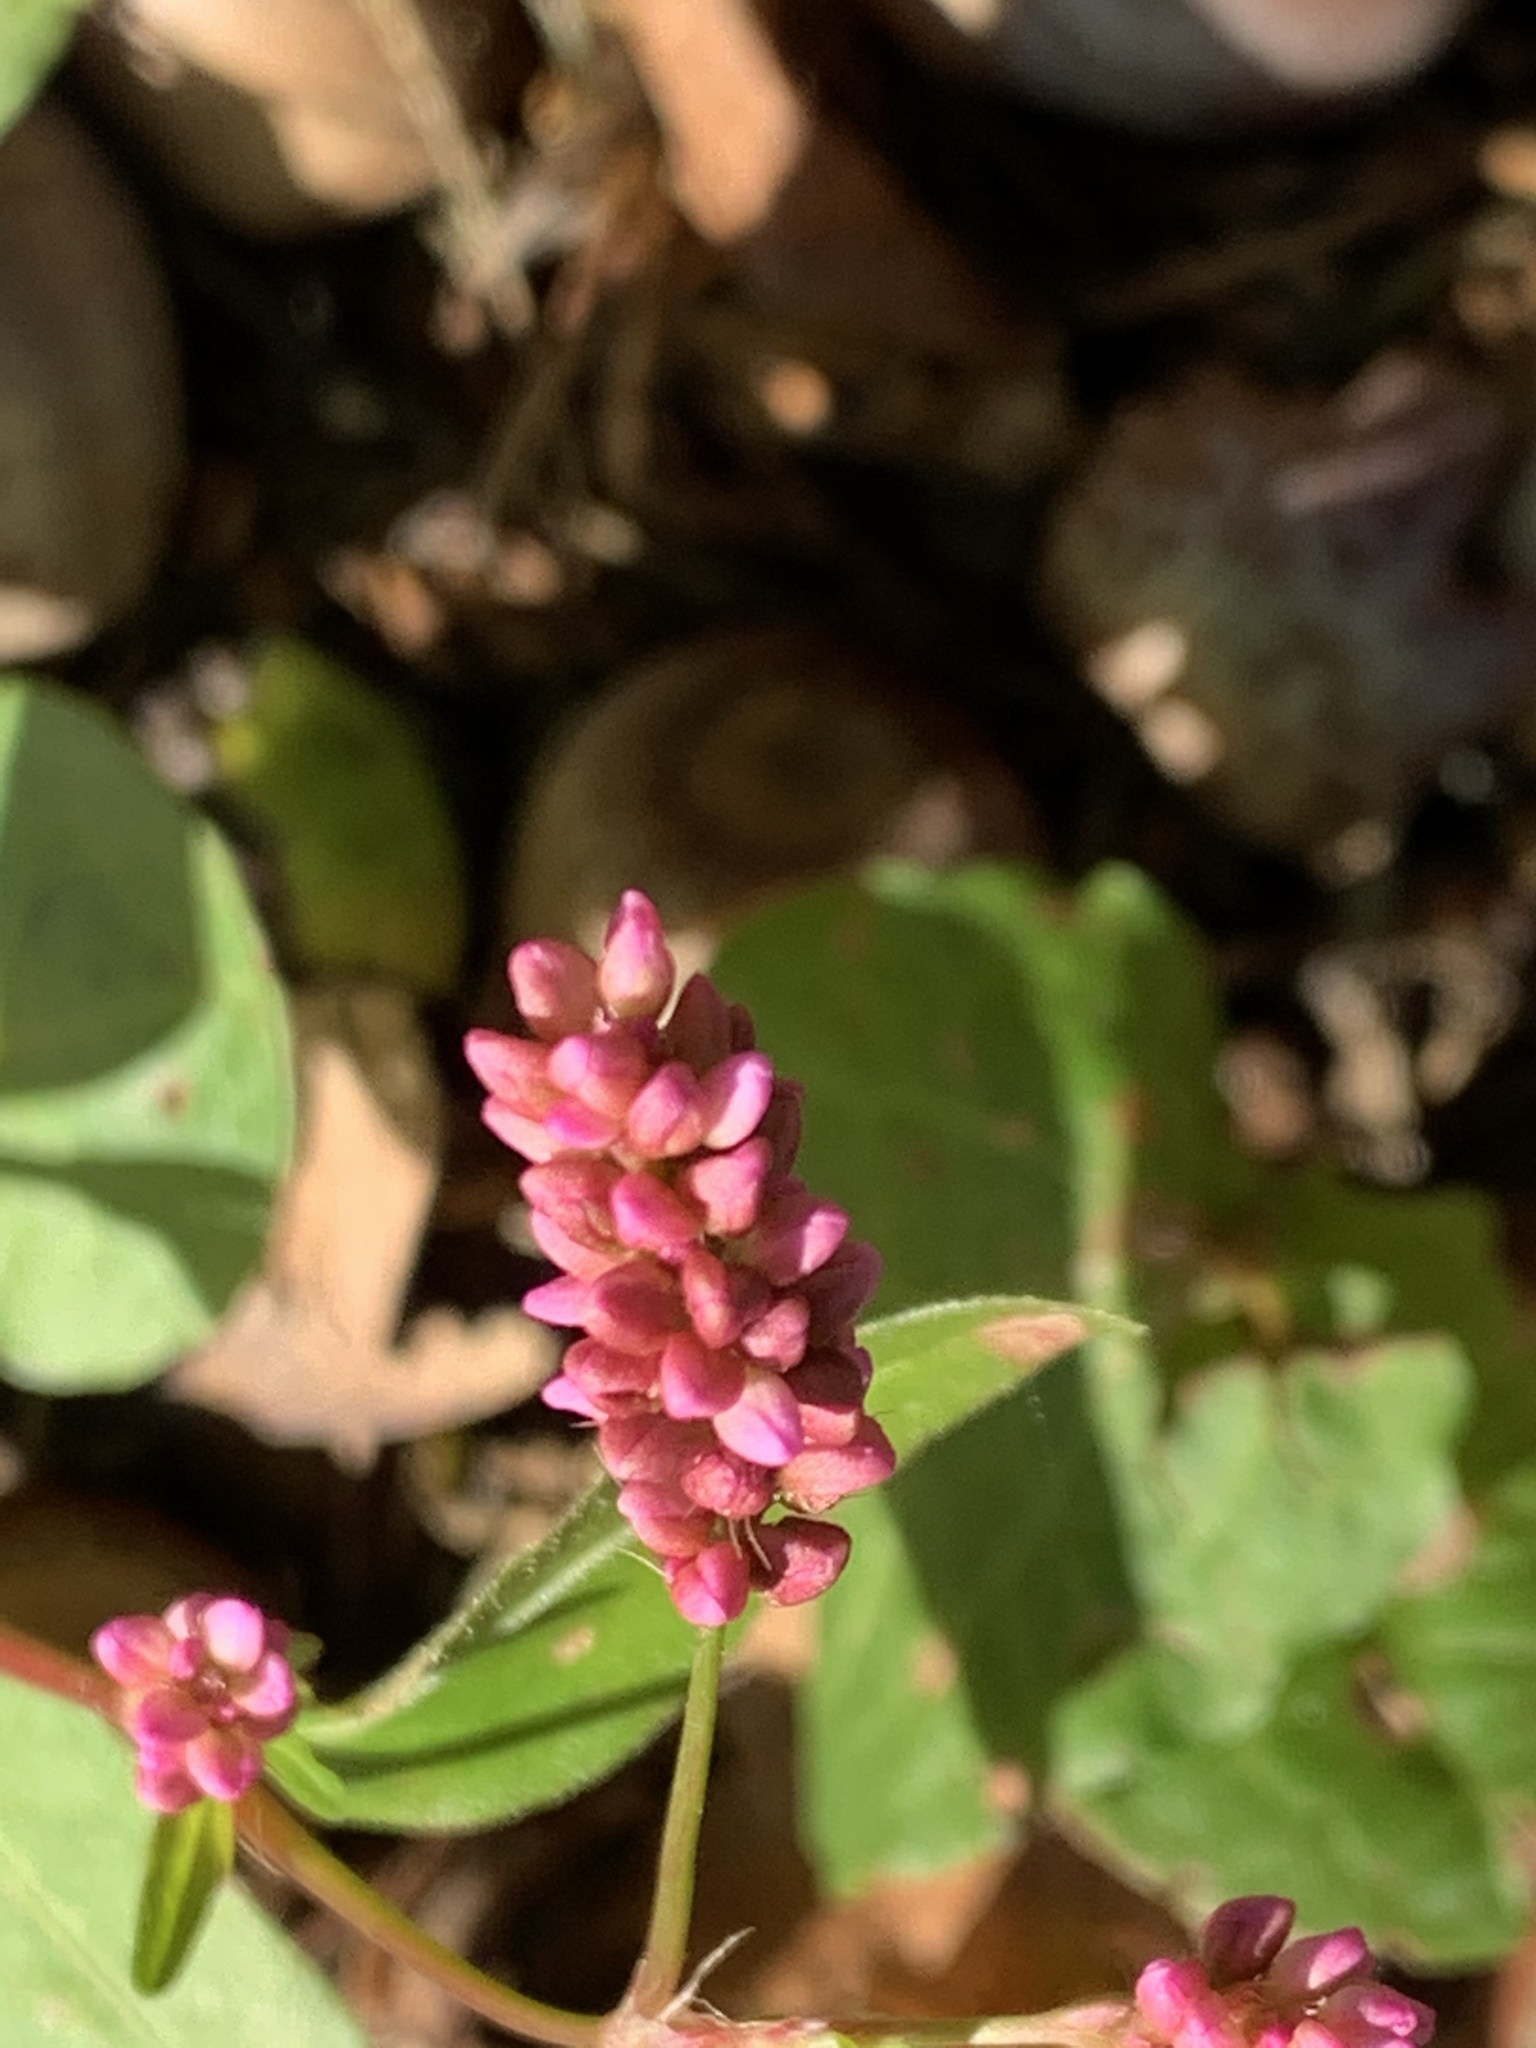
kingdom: Plantae
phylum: Tracheophyta
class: Magnoliopsida
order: Caryophyllales
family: Polygonaceae
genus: Persicaria
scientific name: Persicaria longiseta
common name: Bristly lady's-thumb
